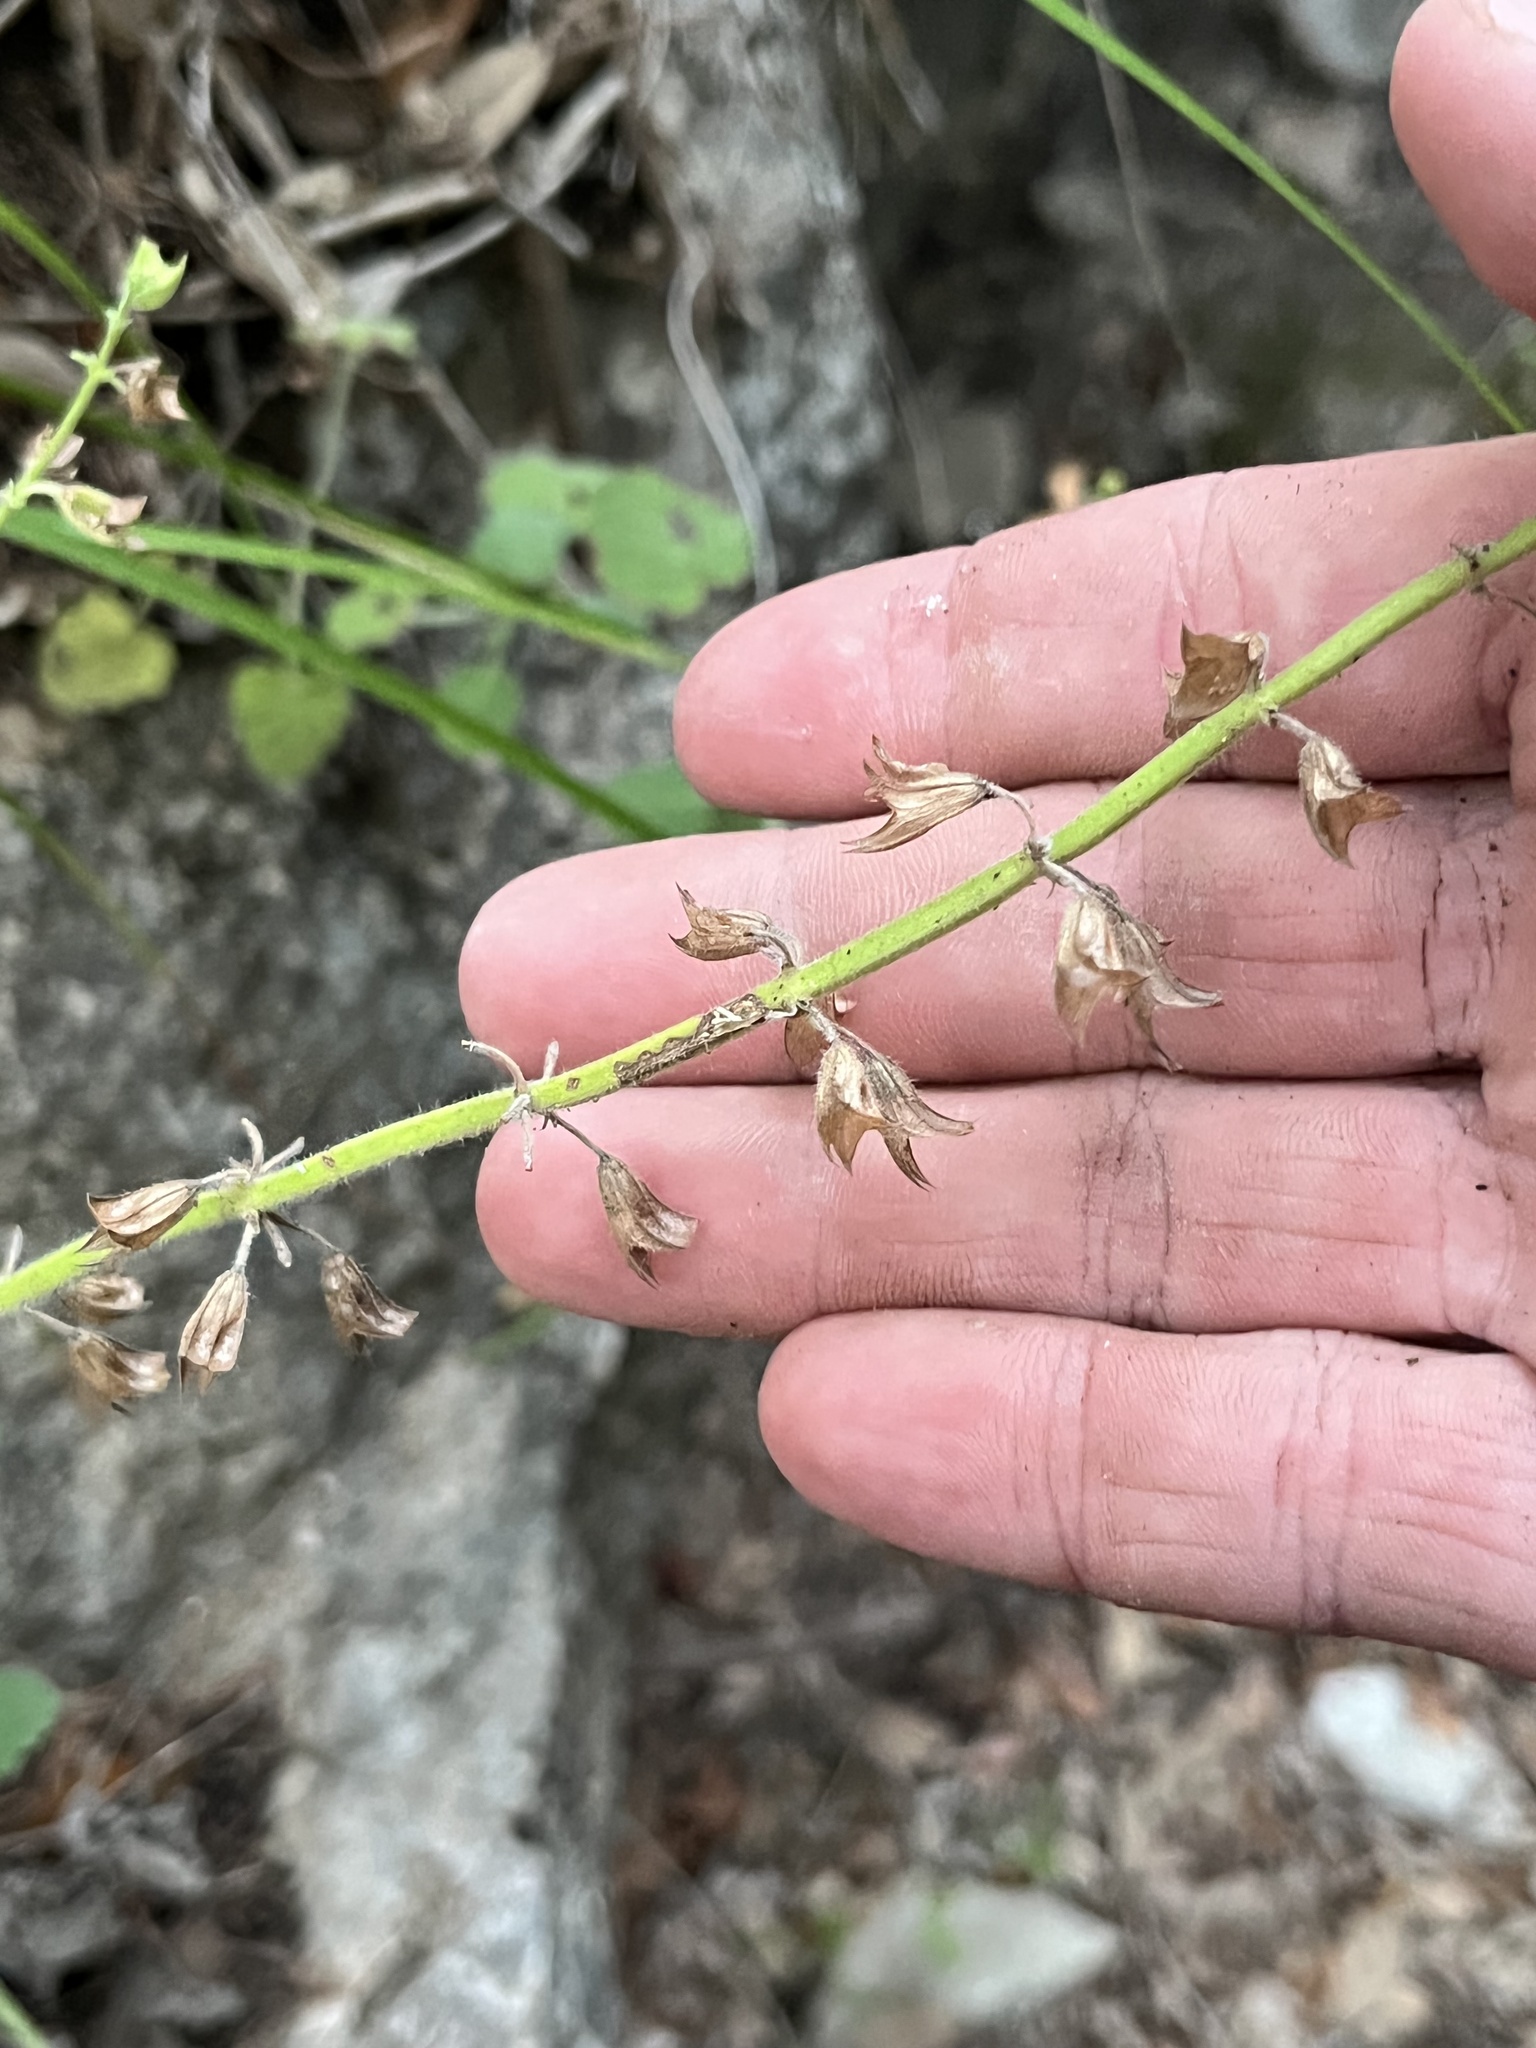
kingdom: Plantae
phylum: Tracheophyta
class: Magnoliopsida
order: Lamiales
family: Lamiaceae
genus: Salvia
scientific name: Salvia roemeriana
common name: Cedar sage
